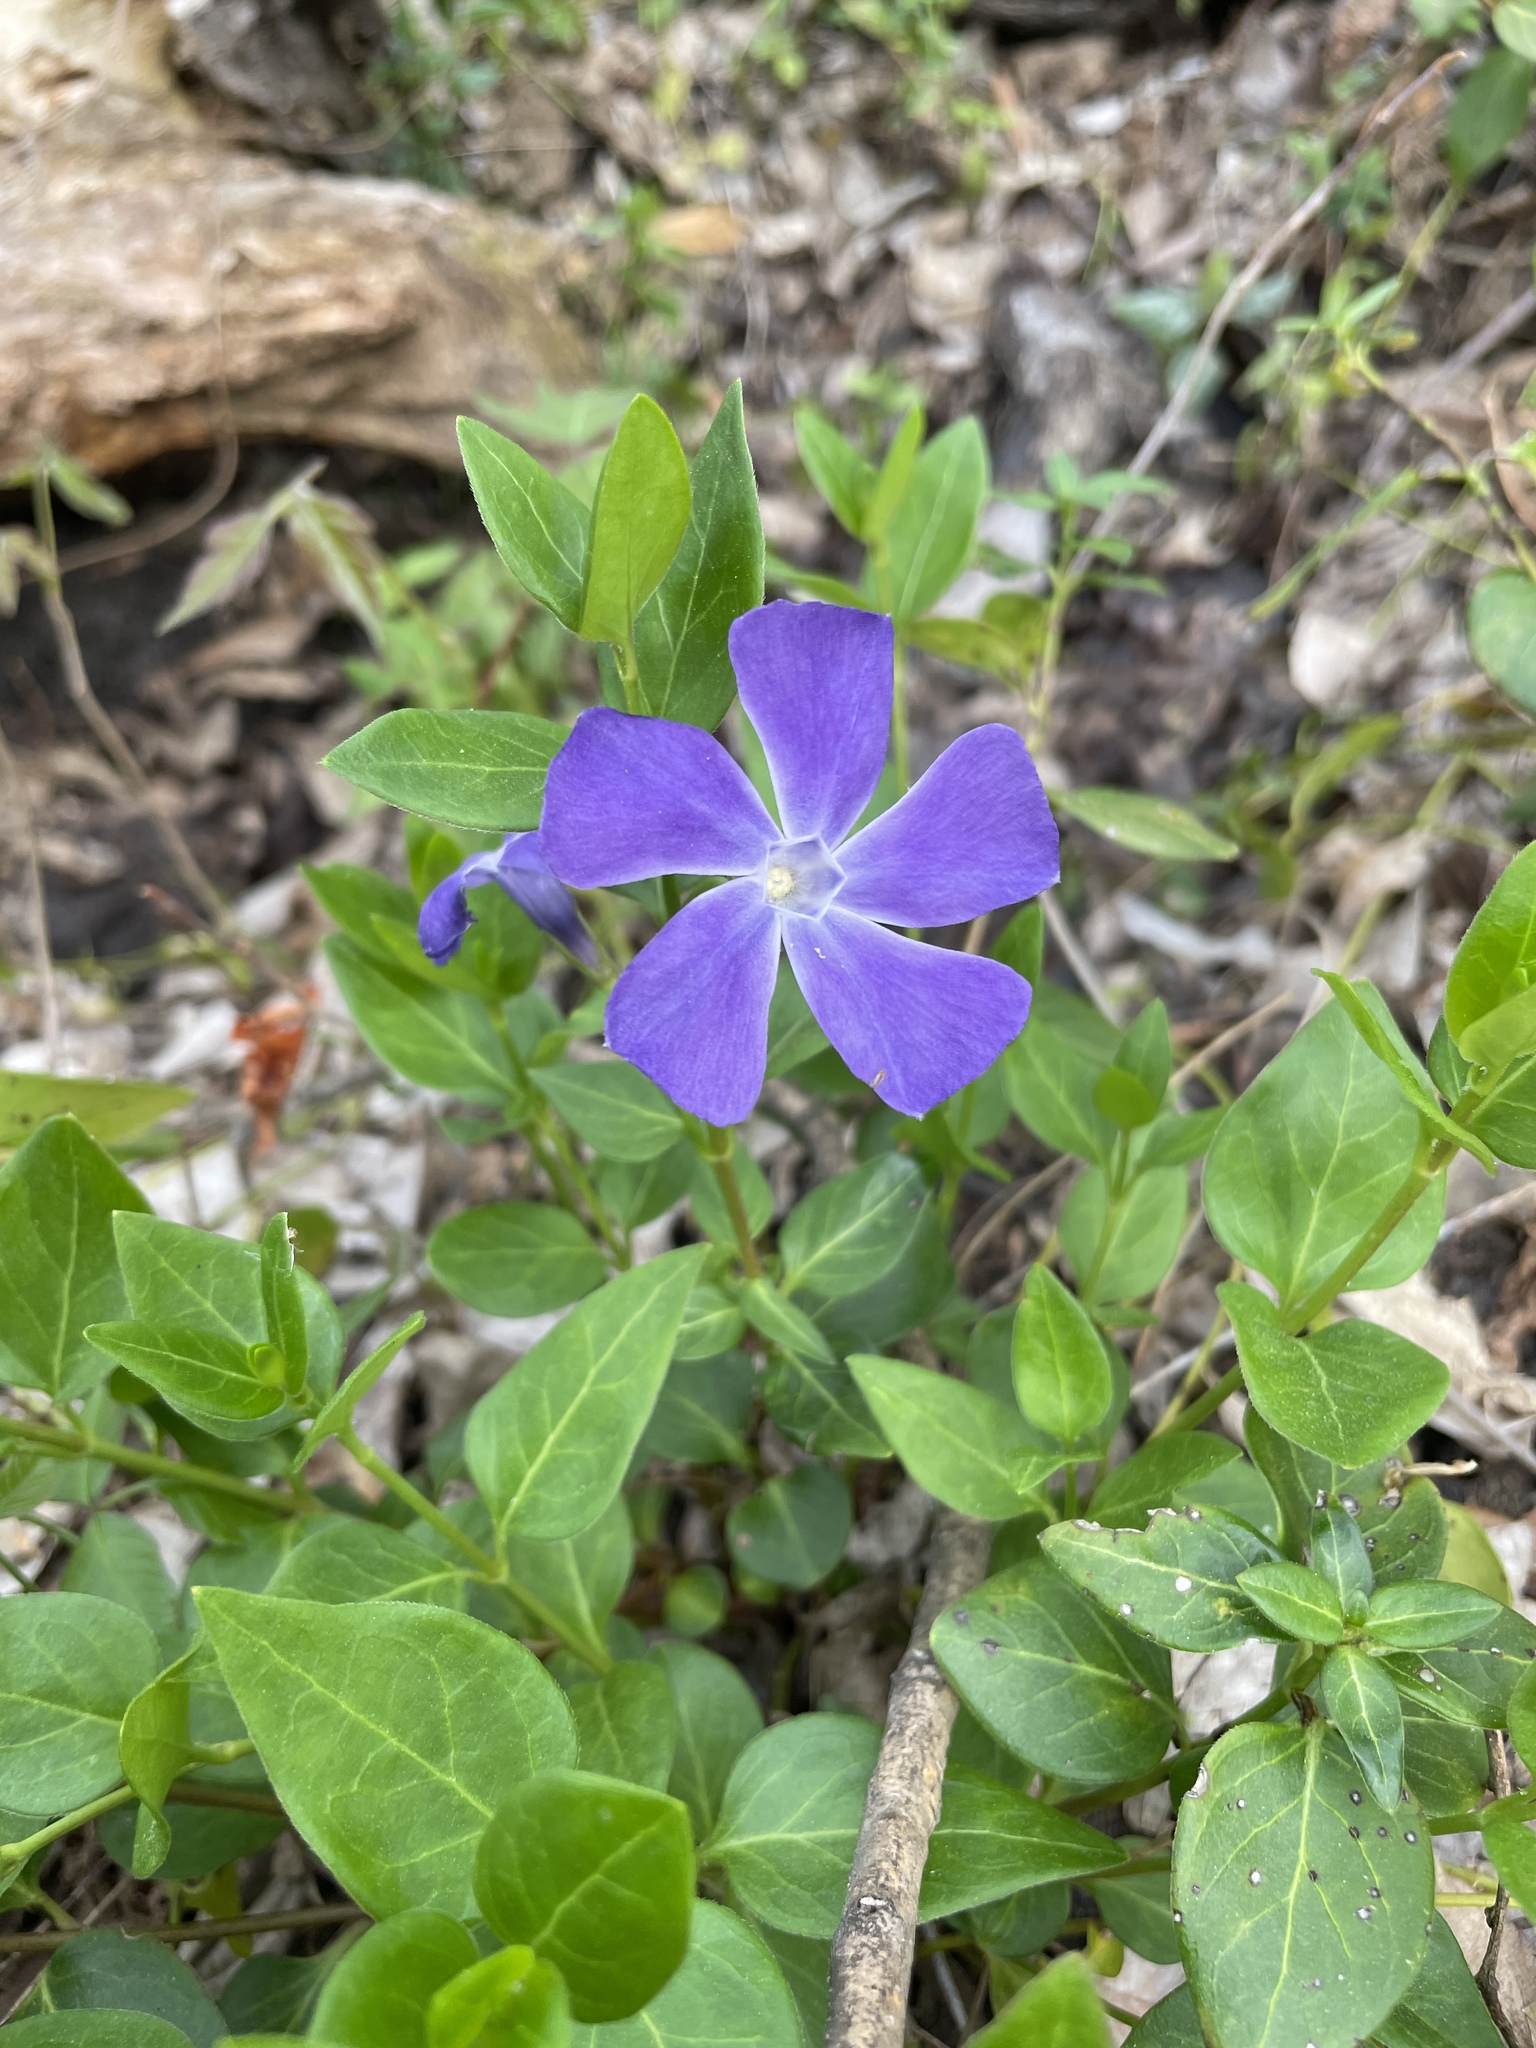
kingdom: Plantae
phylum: Tracheophyta
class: Magnoliopsida
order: Gentianales
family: Apocynaceae
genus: Vinca
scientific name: Vinca major
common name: Greater periwinkle
